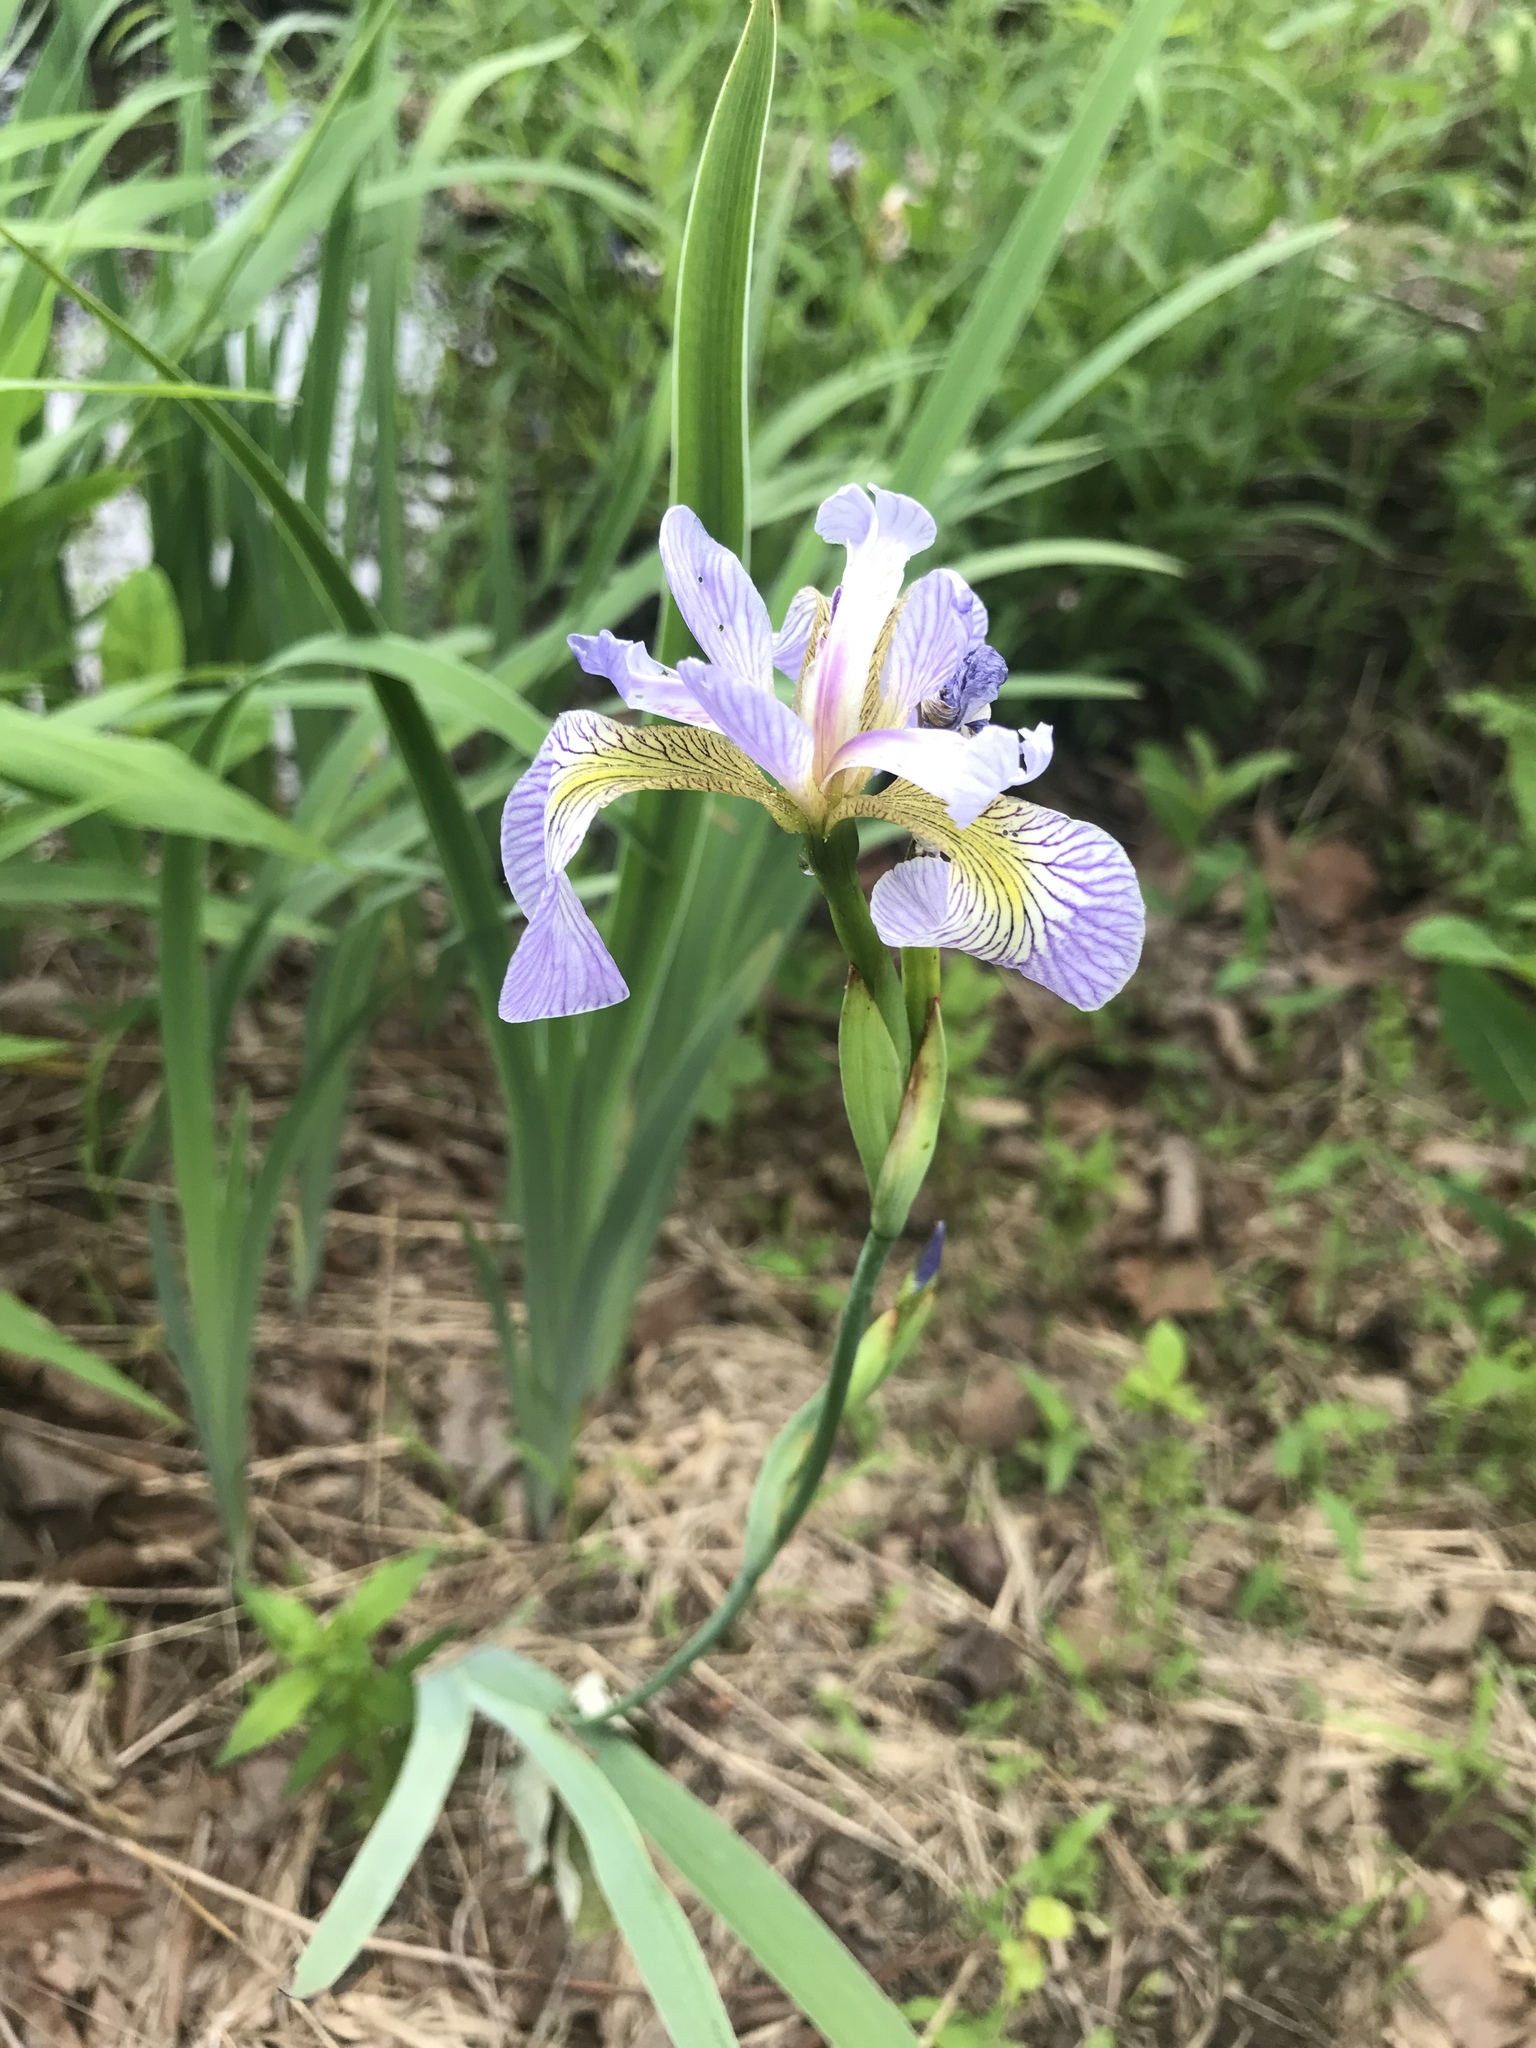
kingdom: Plantae
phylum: Tracheophyta
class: Liliopsida
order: Asparagales
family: Iridaceae
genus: Iris
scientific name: Iris versicolor
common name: Purple iris
